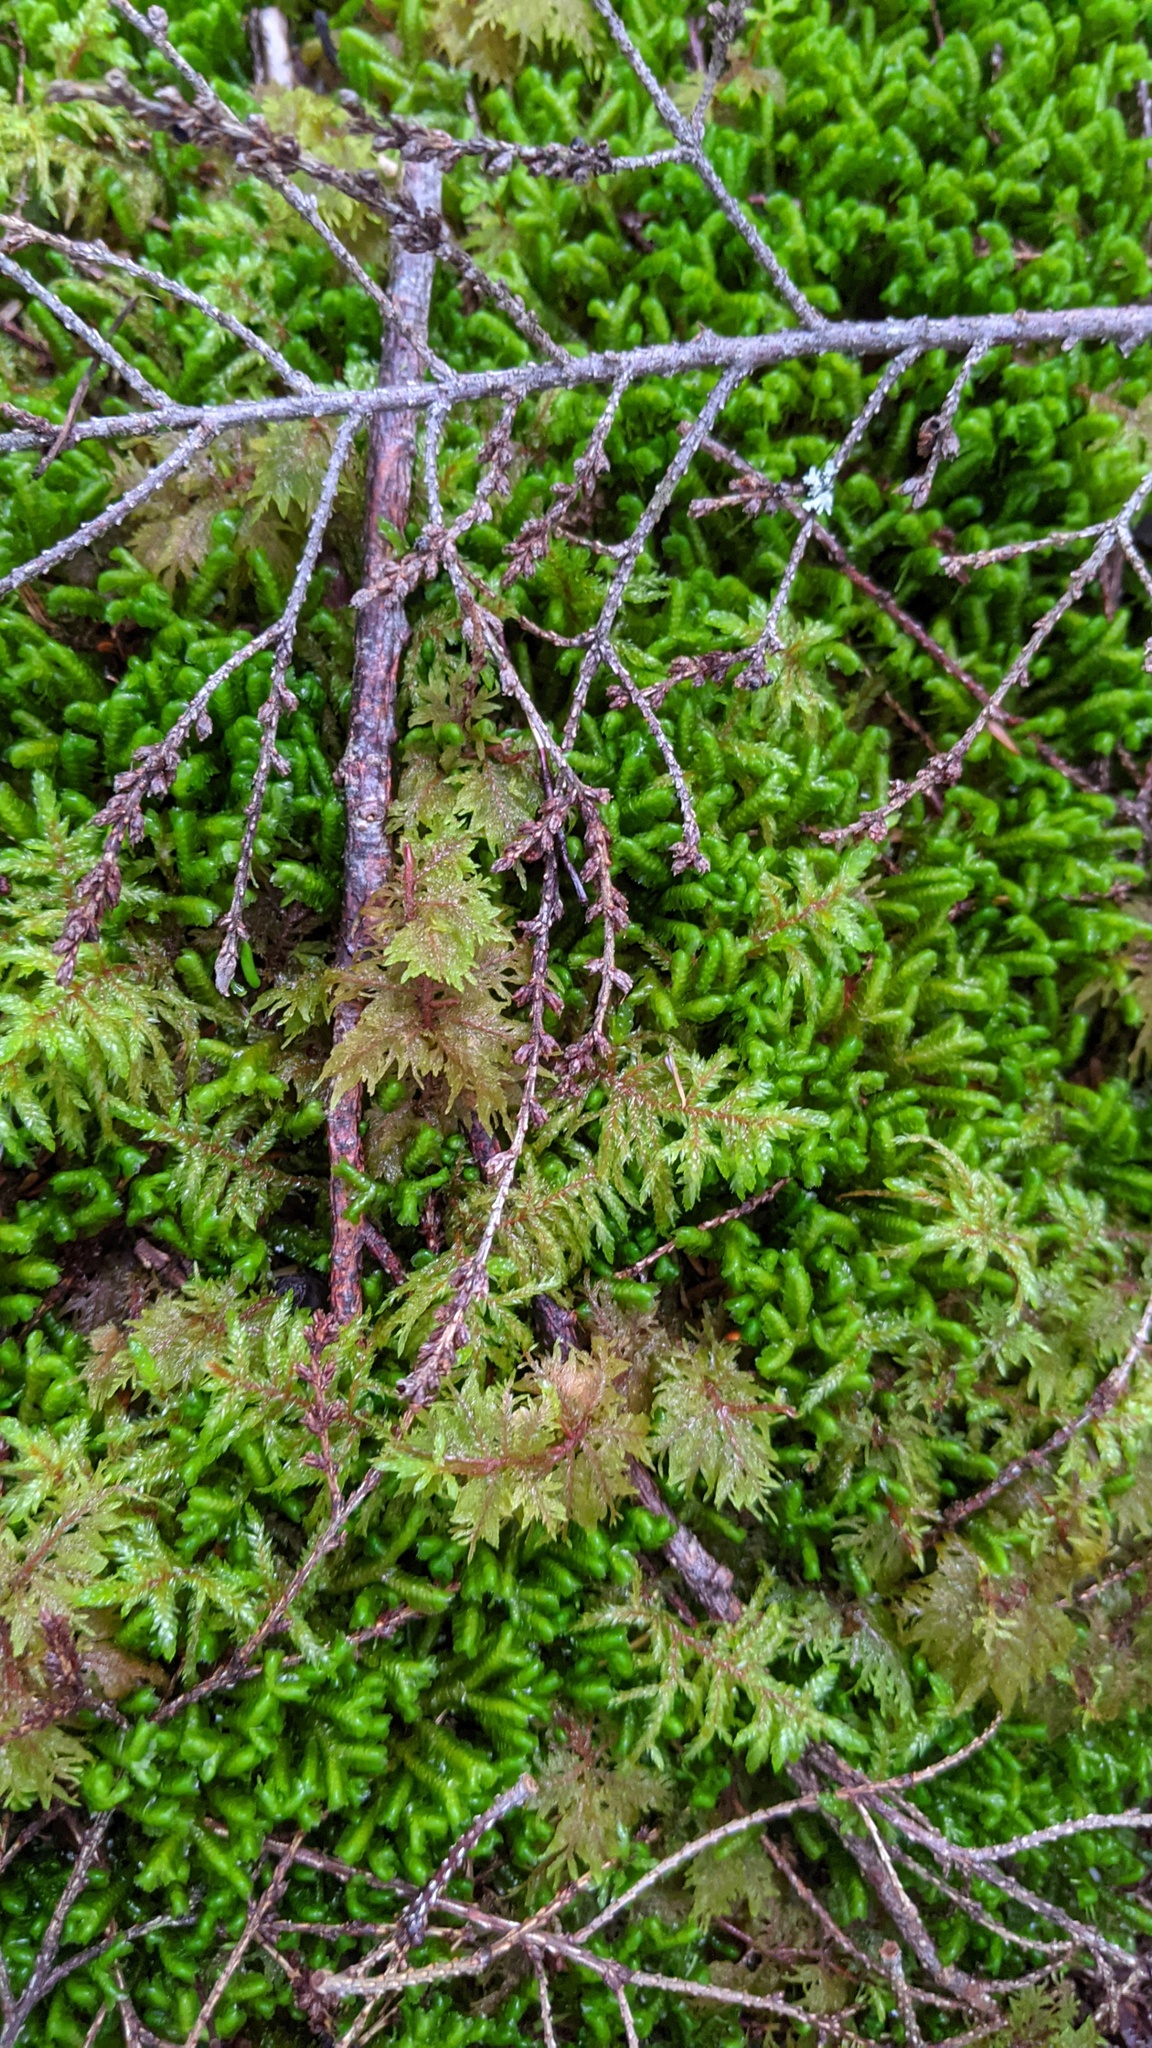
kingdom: Plantae
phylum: Bryophyta
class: Bryopsida
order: Hypnales
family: Hylocomiaceae
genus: Hylocomium
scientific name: Hylocomium splendens
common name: Stairstep moss
